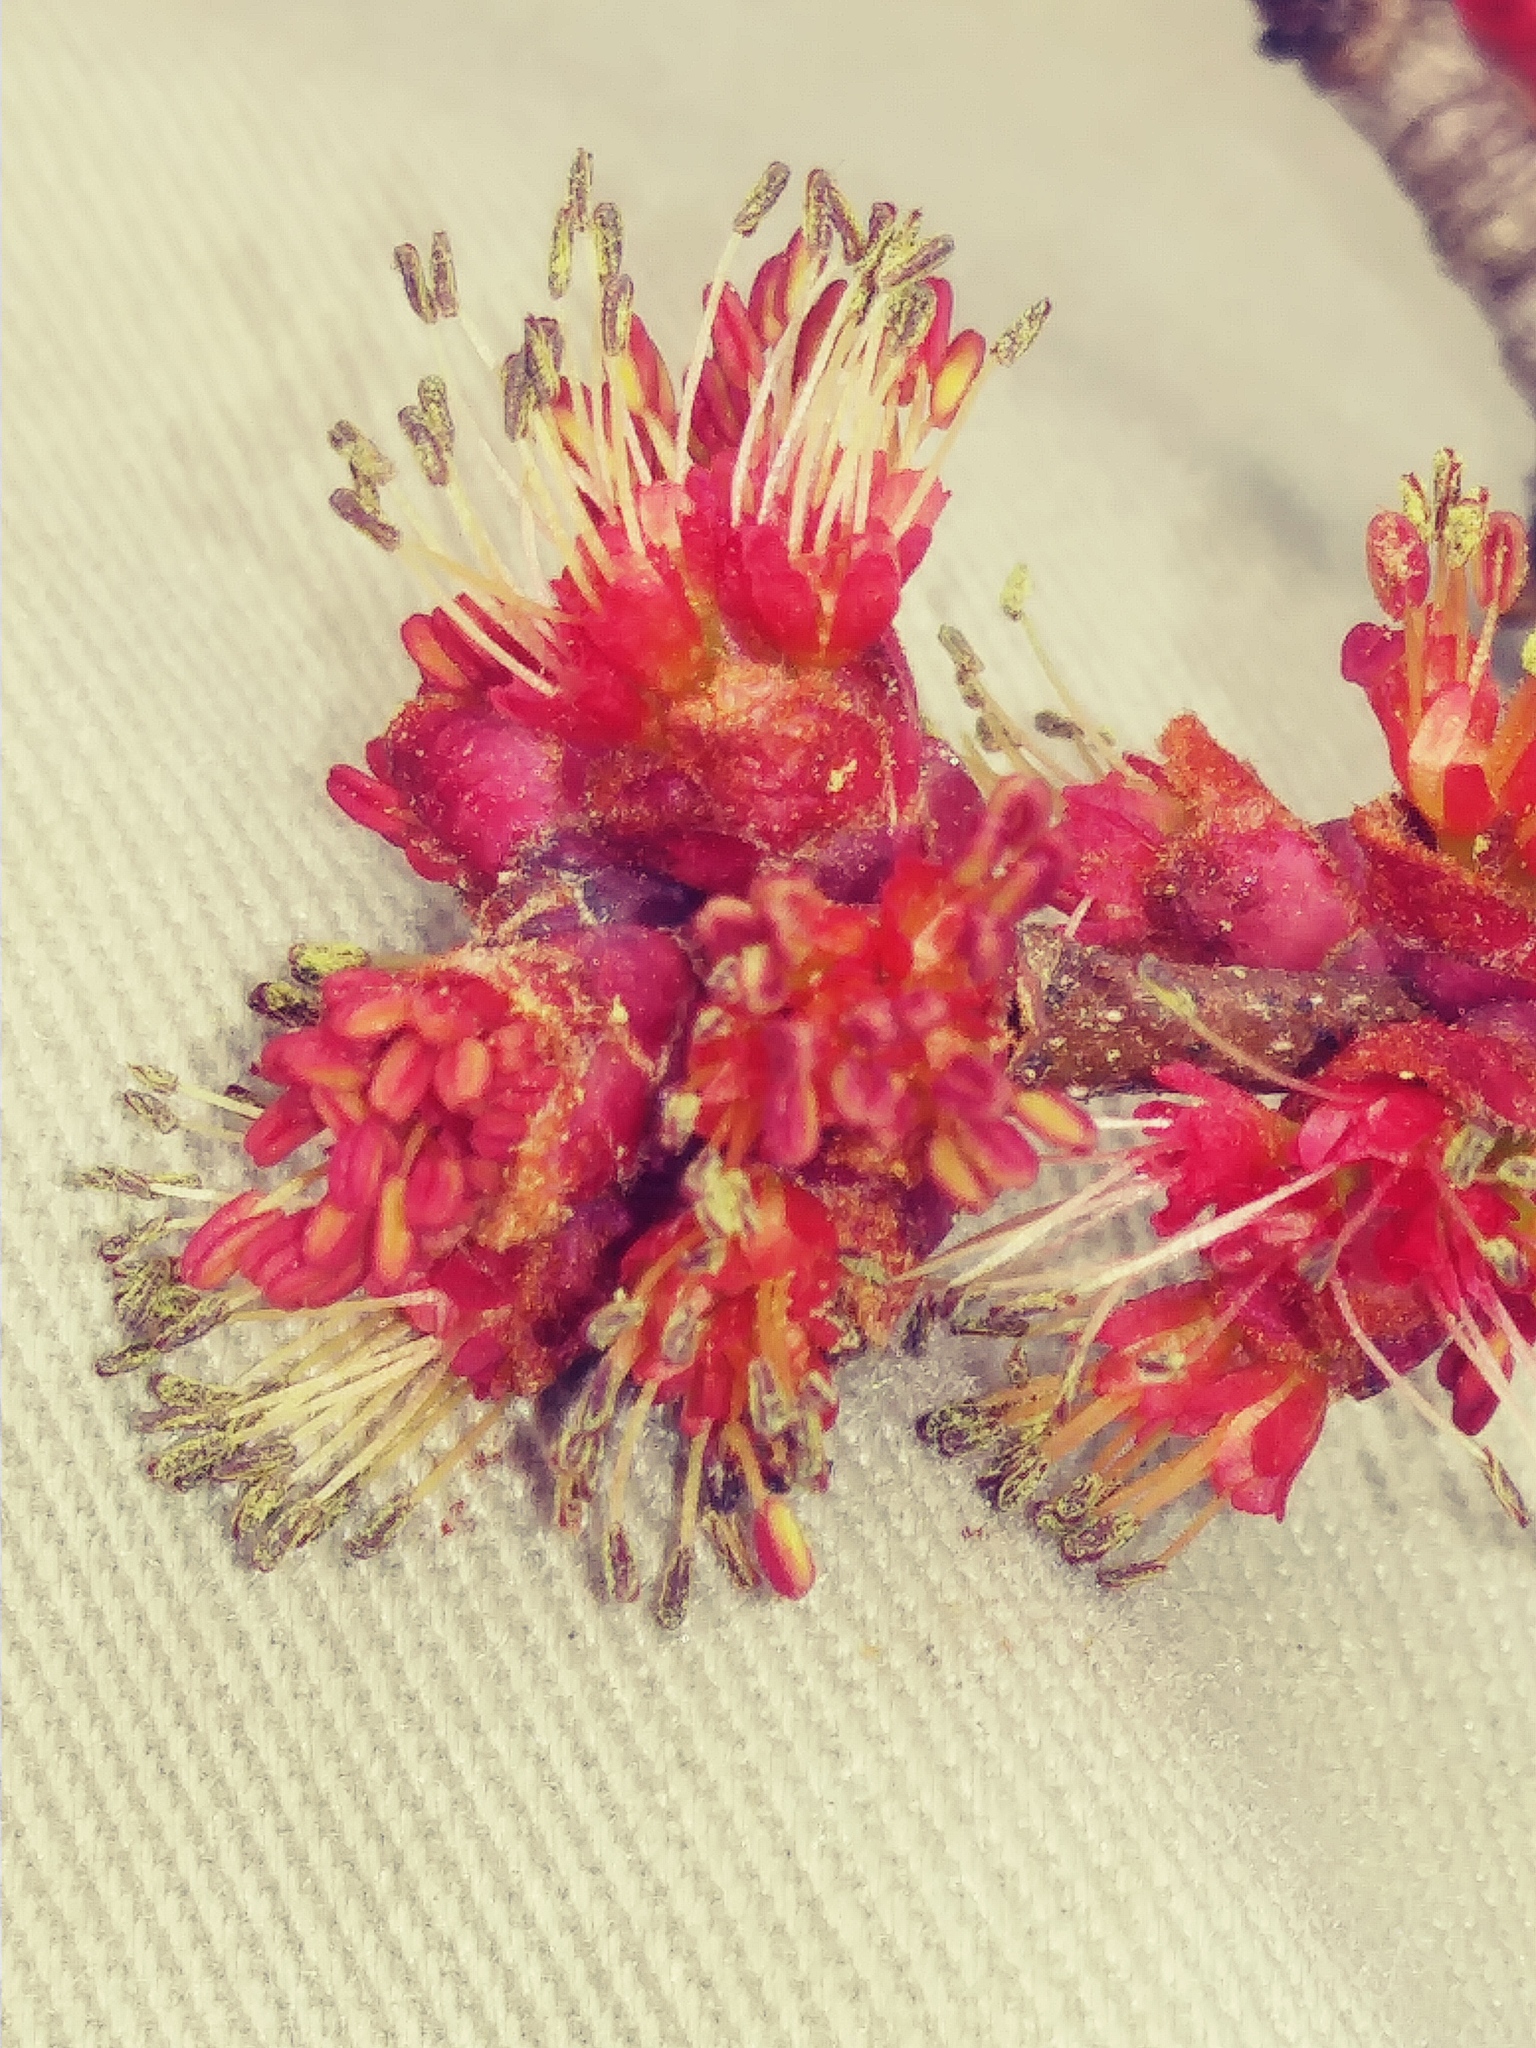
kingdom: Plantae
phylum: Tracheophyta
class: Magnoliopsida
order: Sapindales
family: Sapindaceae
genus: Acer
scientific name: Acer rubrum
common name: Red maple
